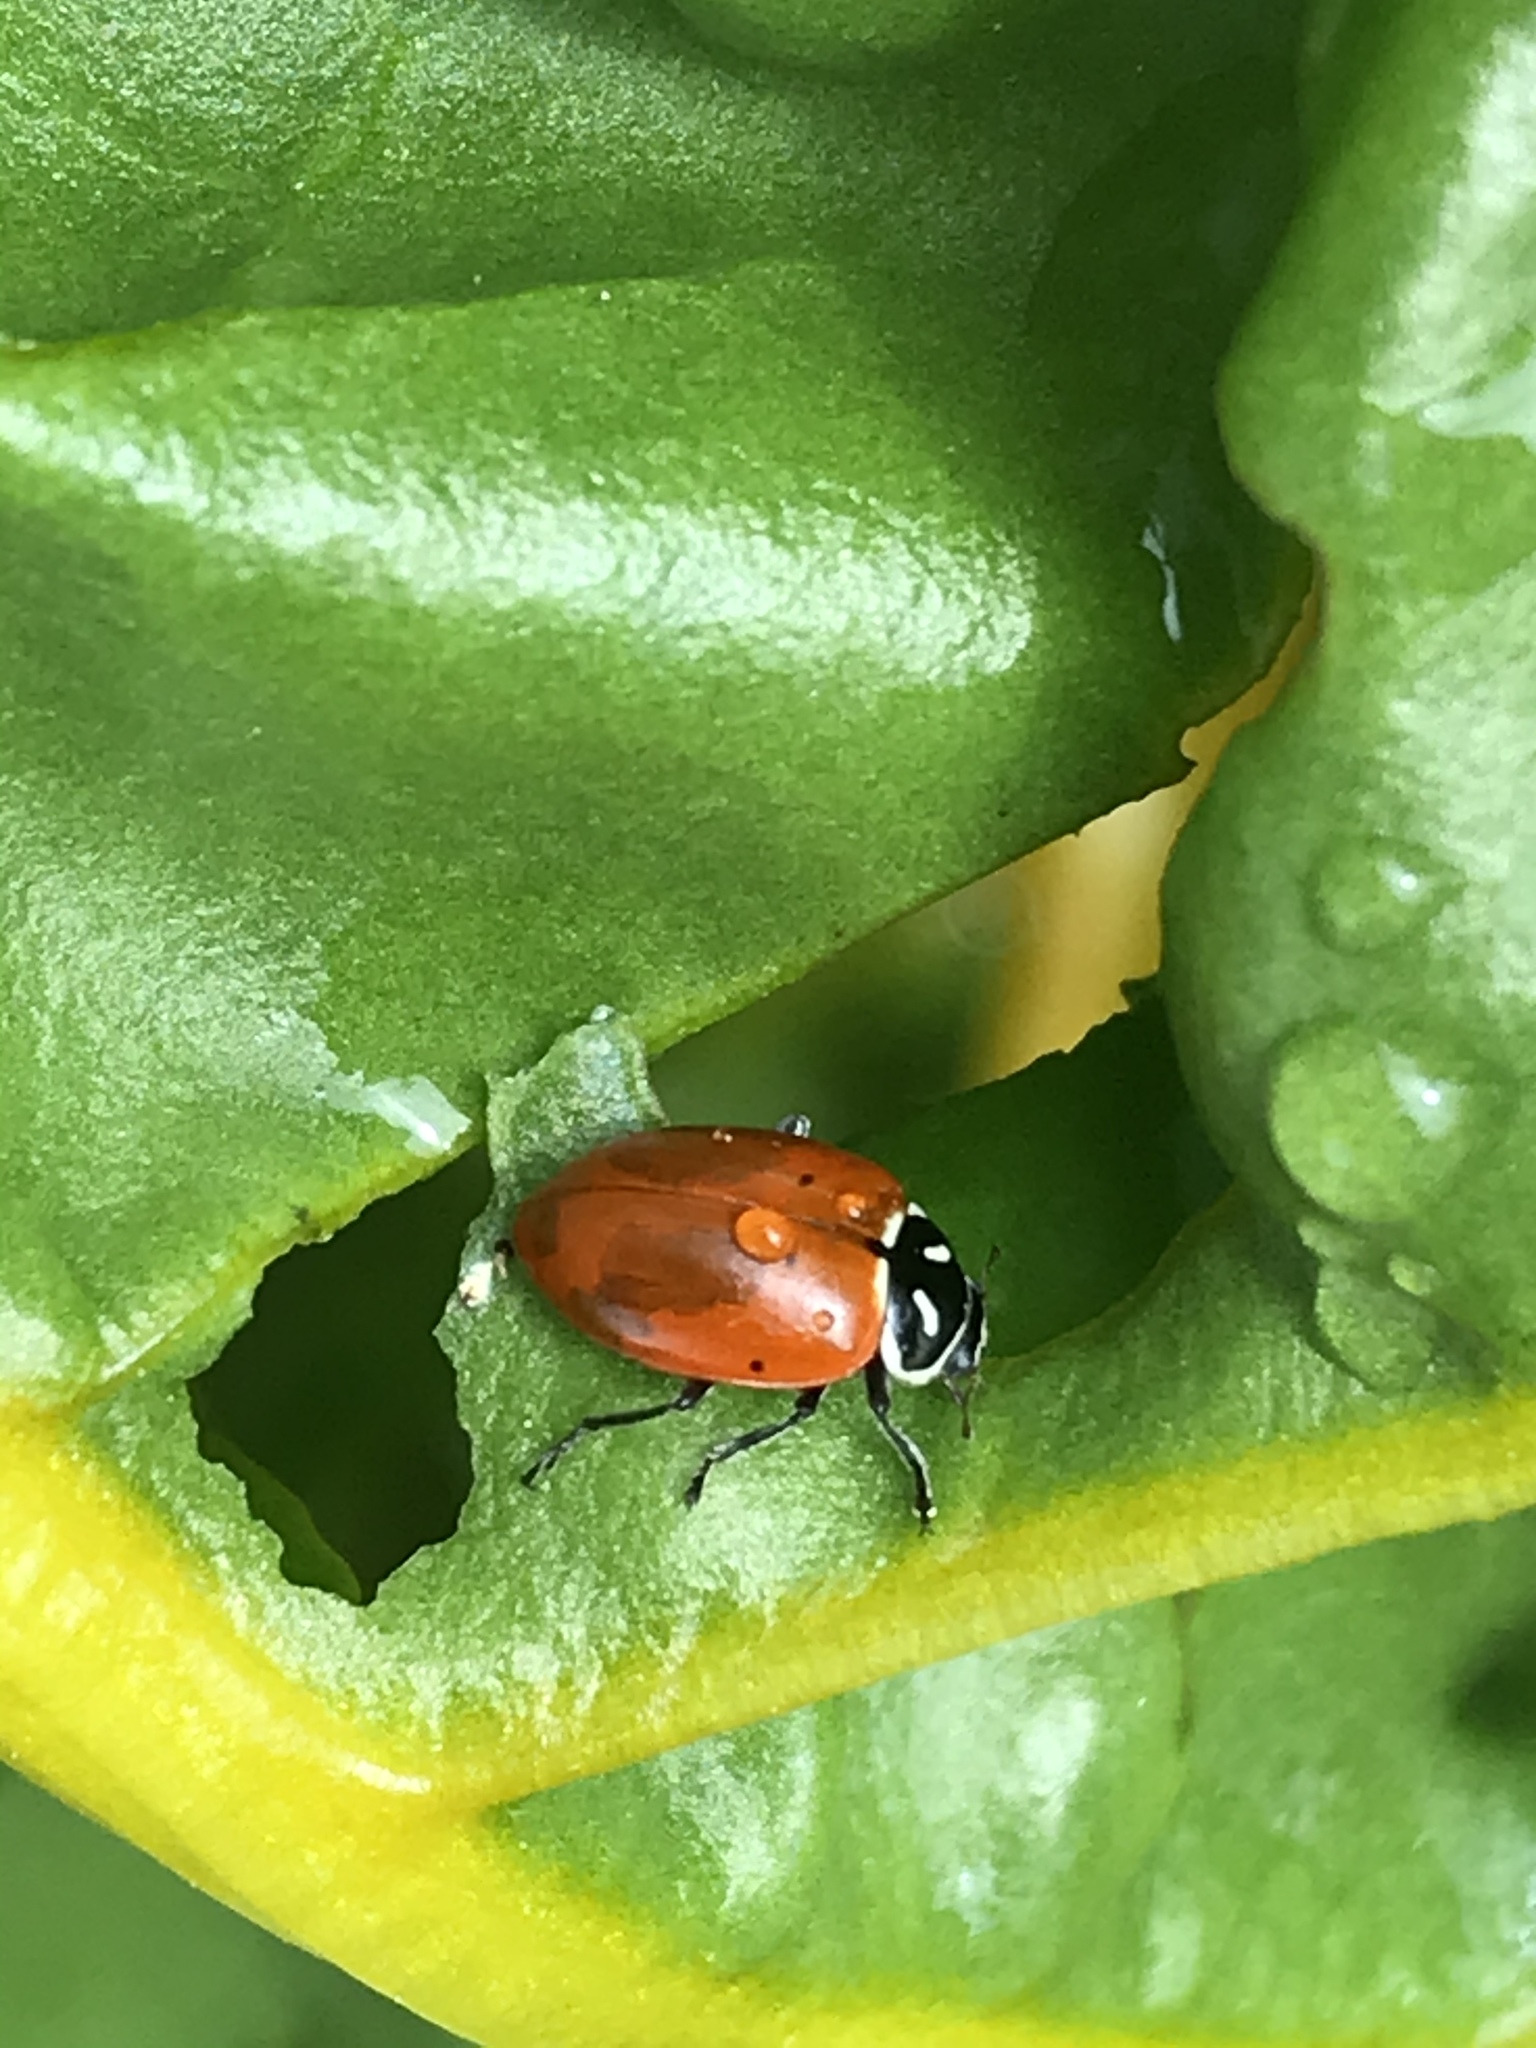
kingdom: Animalia
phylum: Arthropoda
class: Insecta
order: Coleoptera
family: Coccinellidae
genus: Hippodamia
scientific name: Hippodamia convergens
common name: Convergent lady beetle
